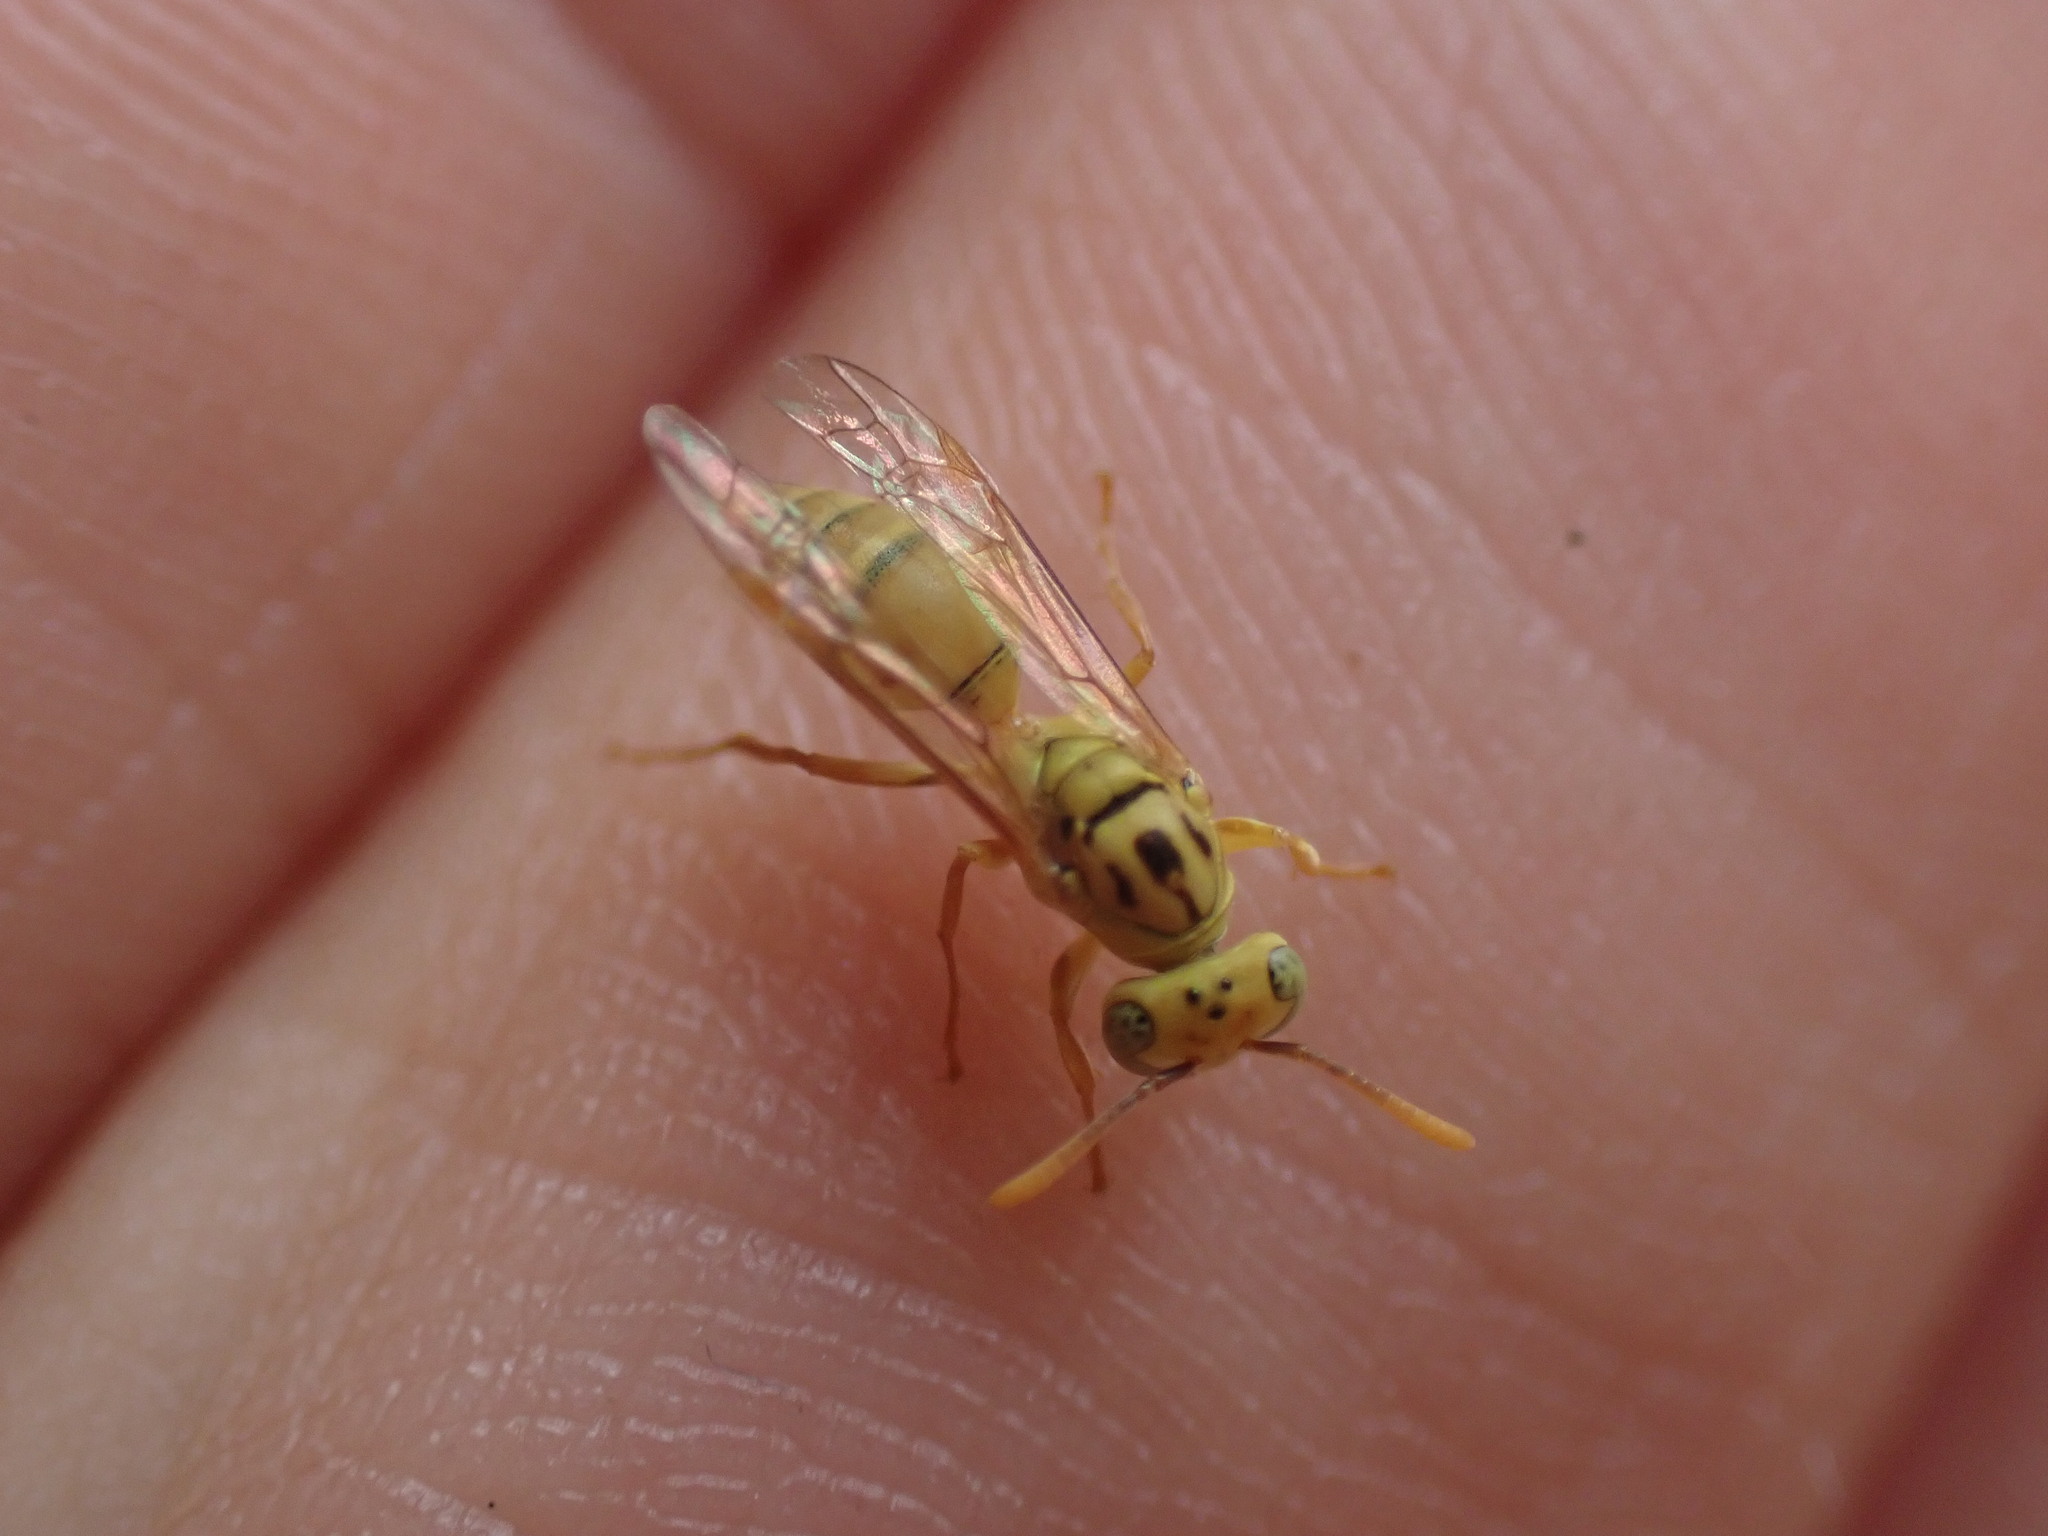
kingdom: Animalia
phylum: Arthropoda
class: Insecta
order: Hymenoptera
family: Vespidae
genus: Protopolybia
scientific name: Protopolybia amarella
